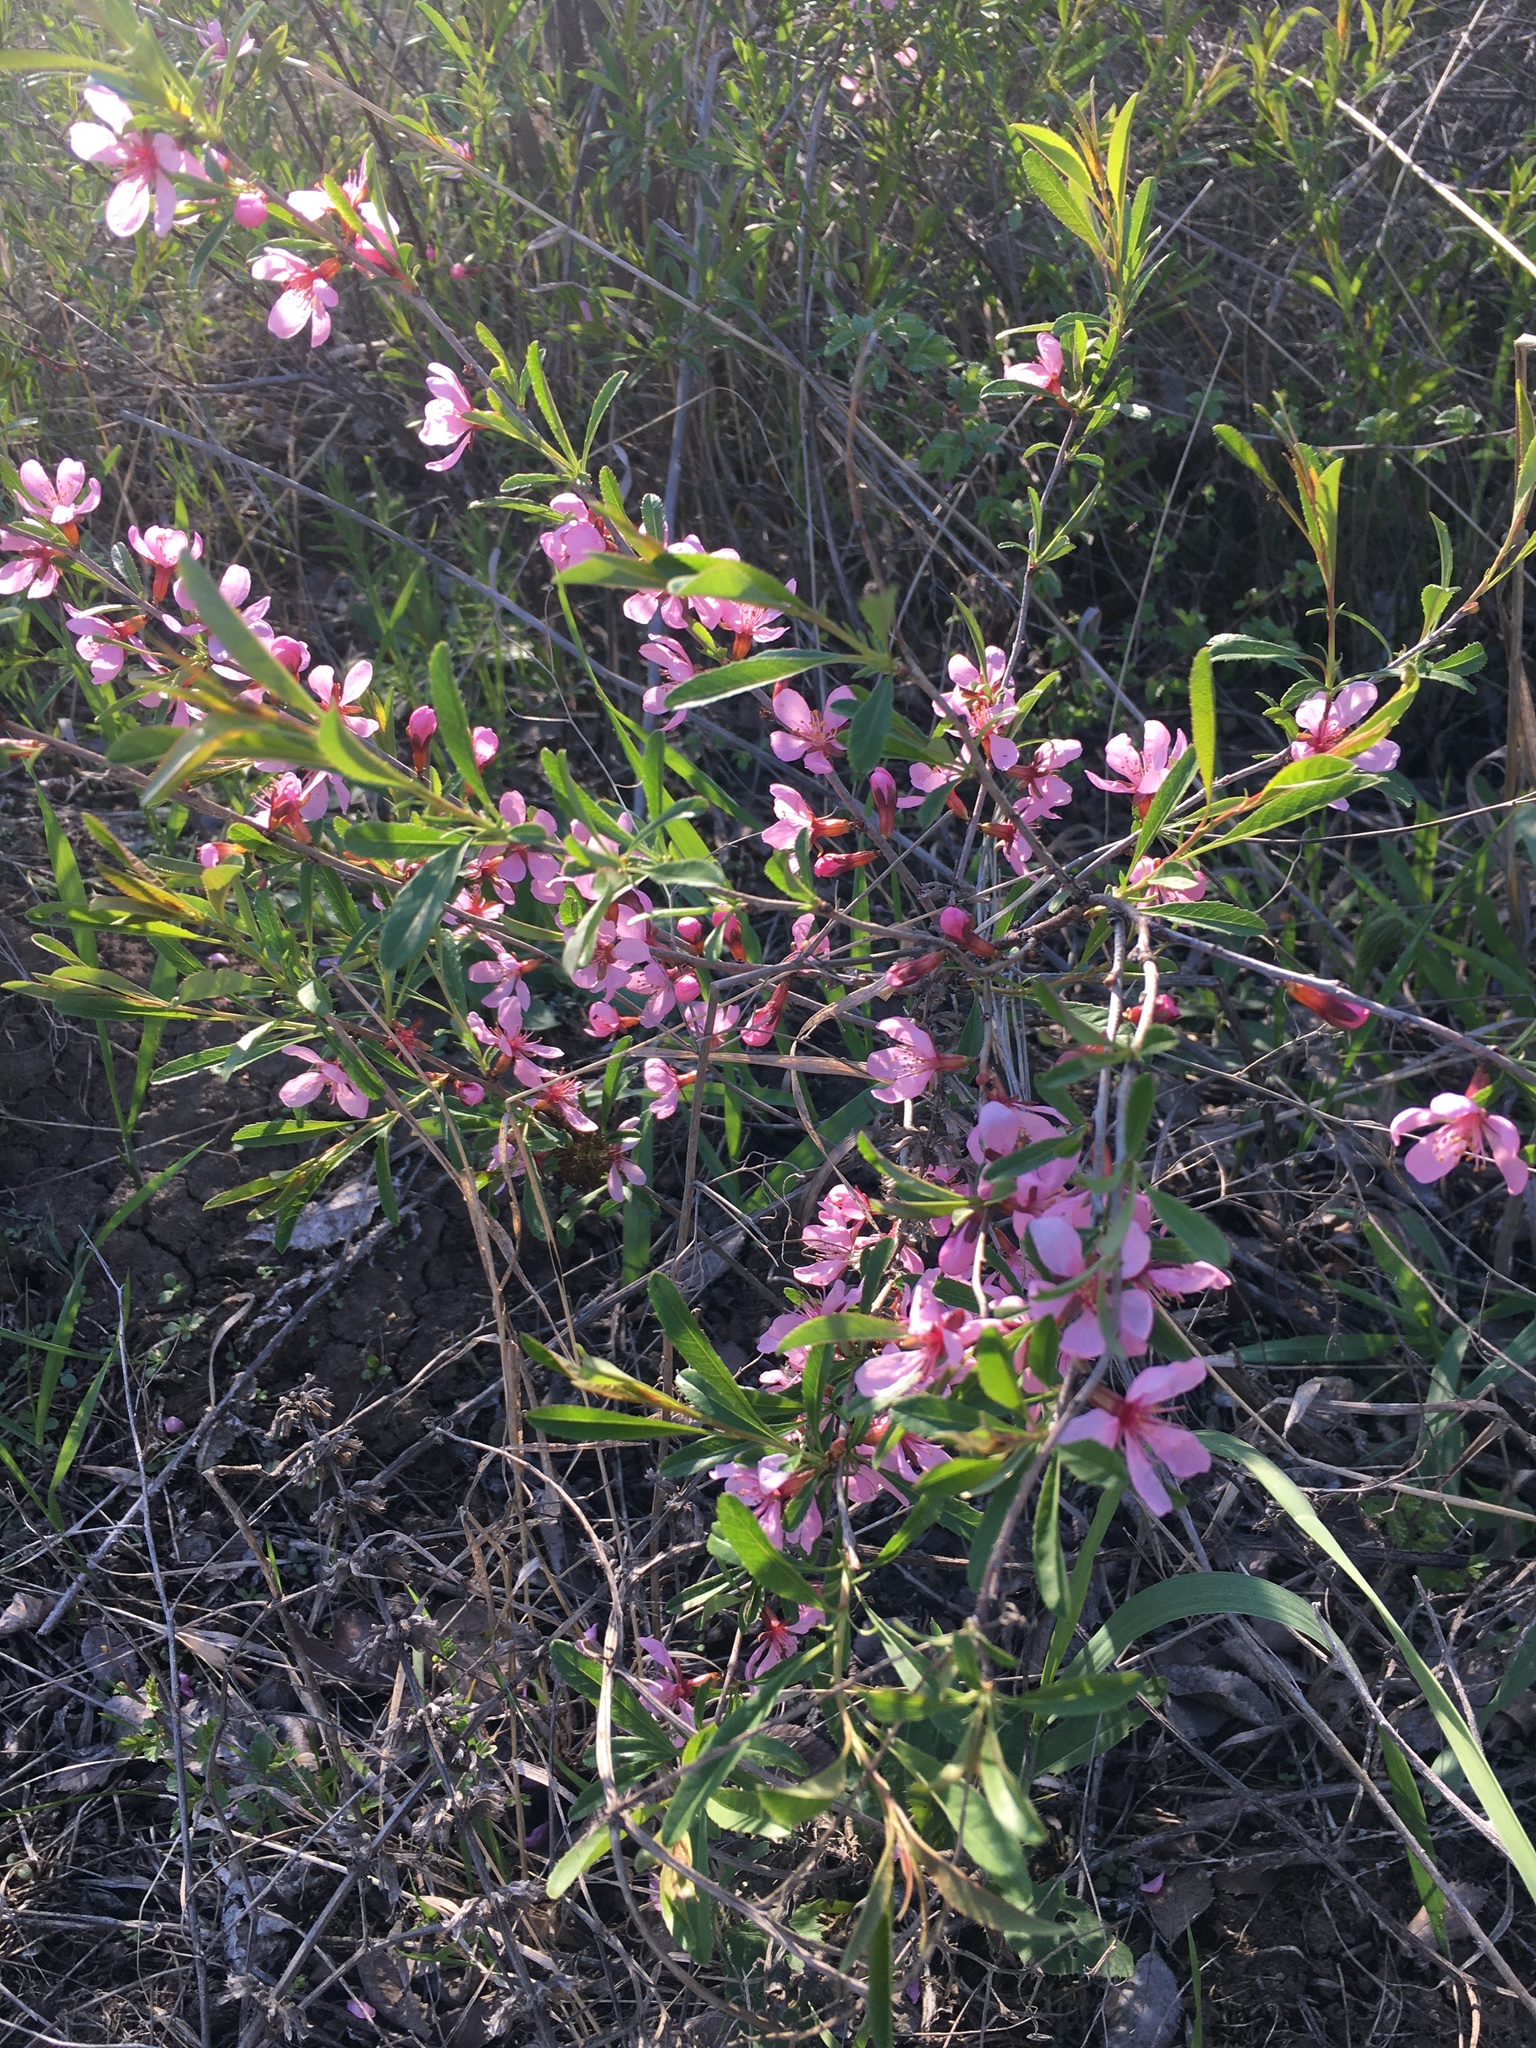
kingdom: Plantae
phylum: Tracheophyta
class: Magnoliopsida
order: Rosales
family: Rosaceae
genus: Prunus
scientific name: Prunus tenella
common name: Dwarf russian almond
